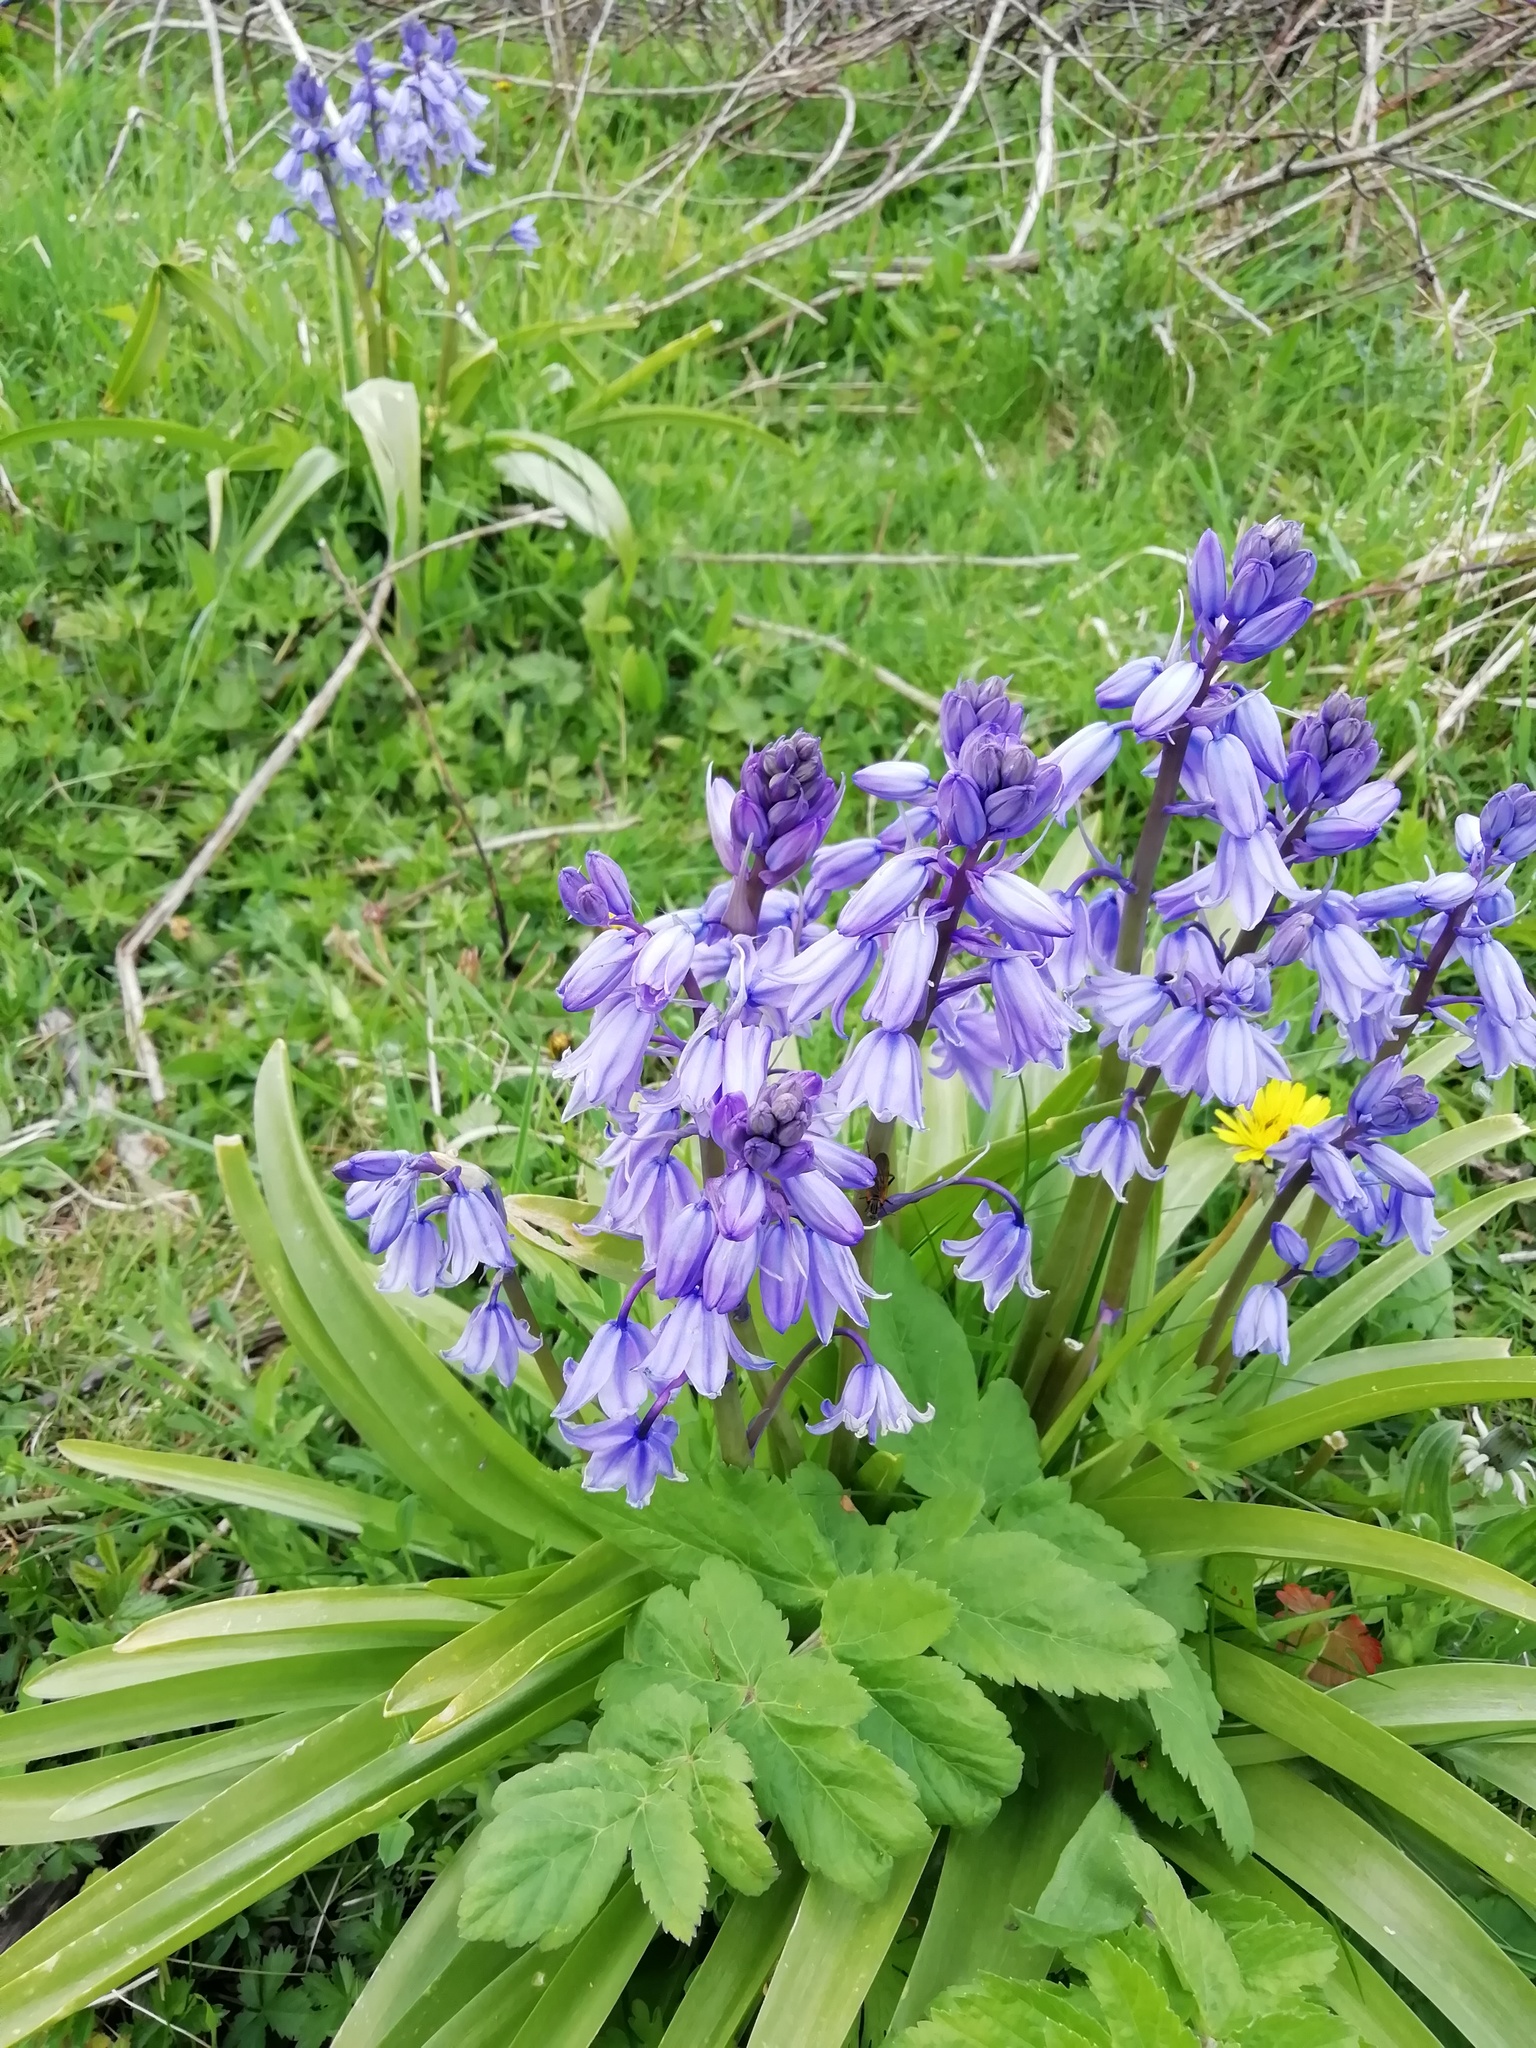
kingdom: Plantae
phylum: Tracheophyta
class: Liliopsida
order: Asparagales
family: Asparagaceae
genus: Hyacinthoides
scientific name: Hyacinthoides hispanica
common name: Spanish bluebell
